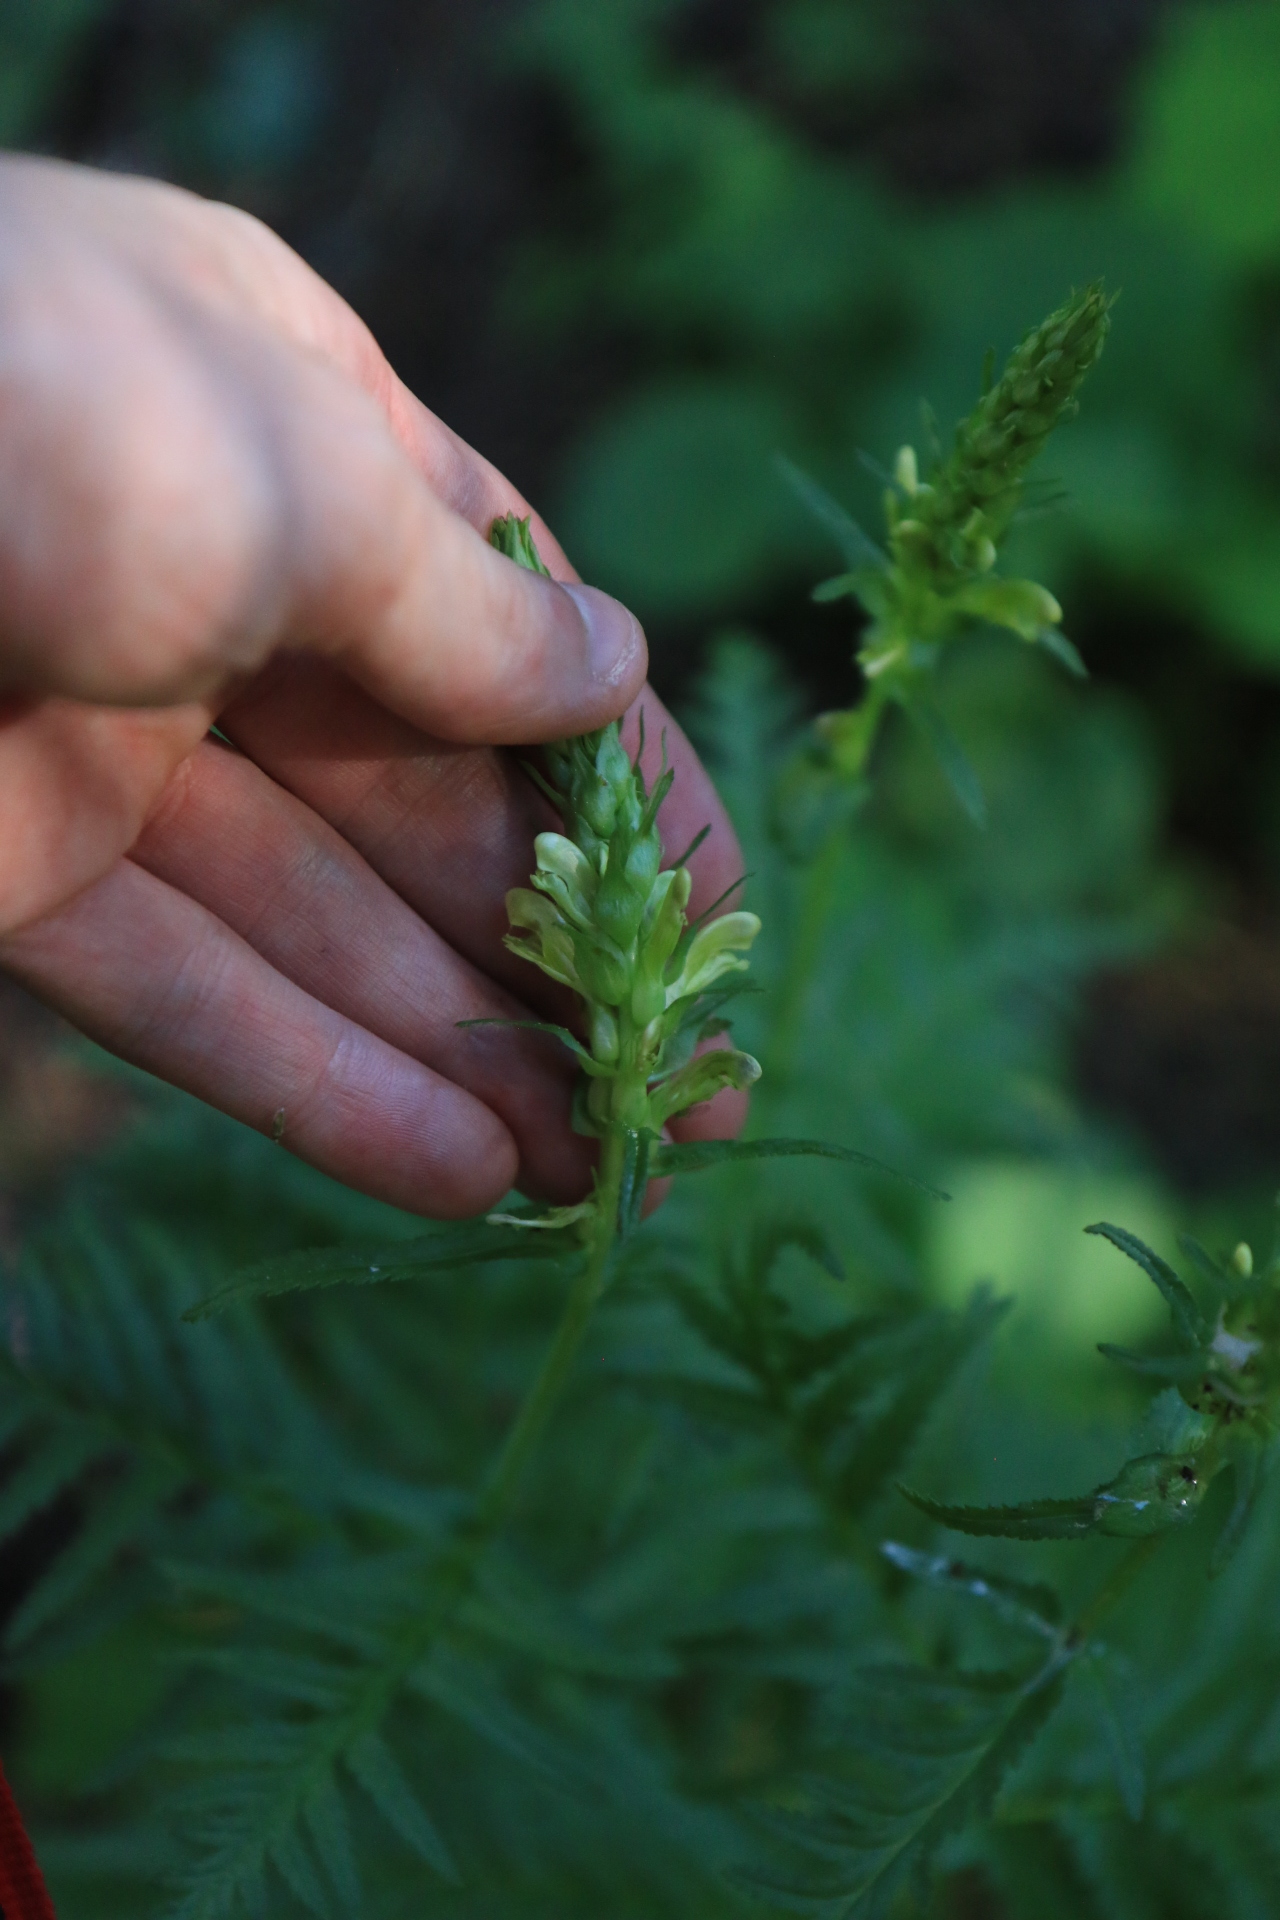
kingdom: Plantae
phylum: Tracheophyta
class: Magnoliopsida
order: Lamiales
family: Orobanchaceae
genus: Pedicularis
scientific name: Pedicularis bracteosa
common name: Bracted lousewort
